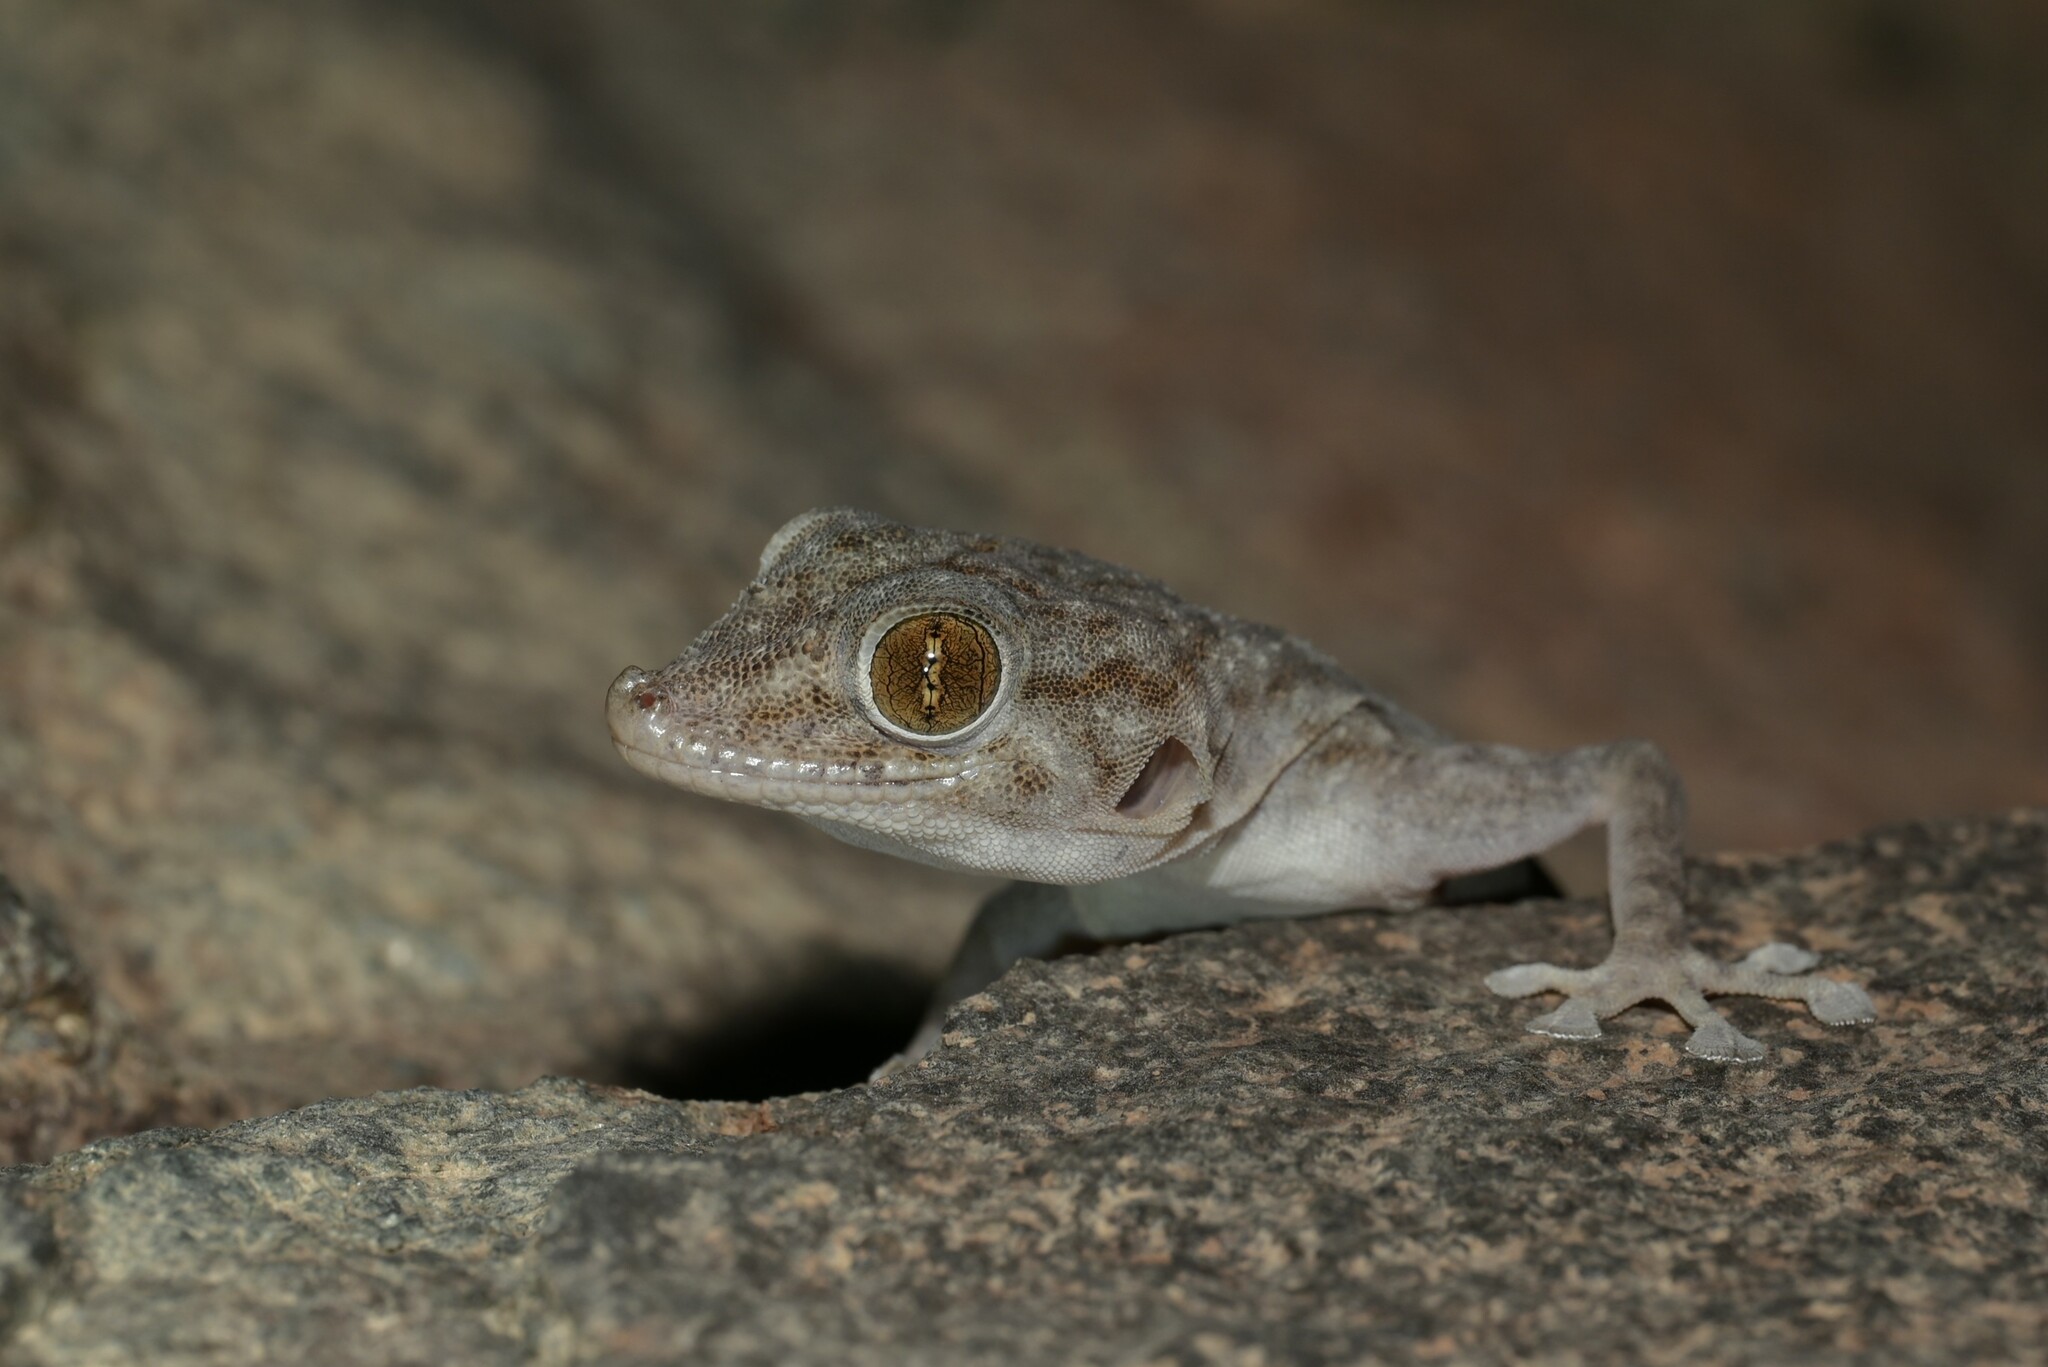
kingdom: Animalia
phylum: Chordata
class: Squamata
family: Phyllodactylidae
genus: Ptyodactylus
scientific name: Ptyodactylus orlovi
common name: Orlov's fan-footed gecko
